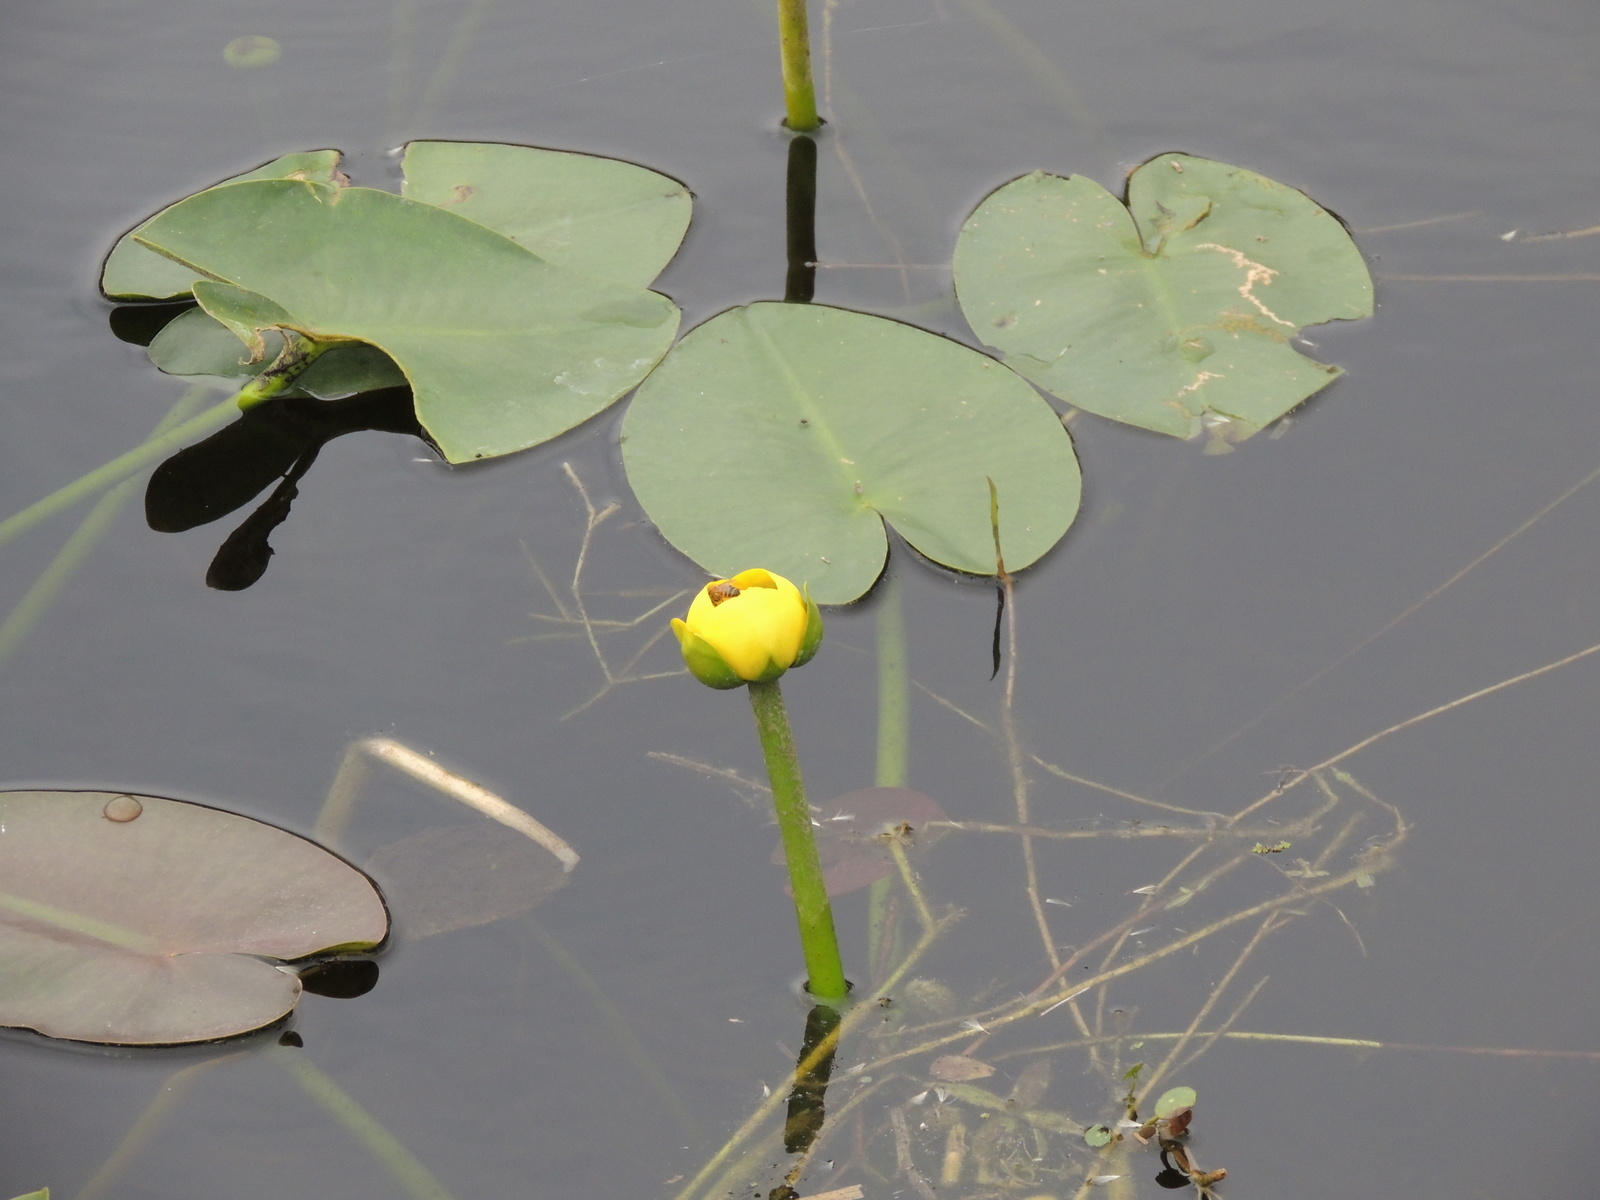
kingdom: Plantae
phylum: Tracheophyta
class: Magnoliopsida
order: Nymphaeales
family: Nymphaeaceae
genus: Nuphar
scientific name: Nuphar advena
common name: Spatter-dock
